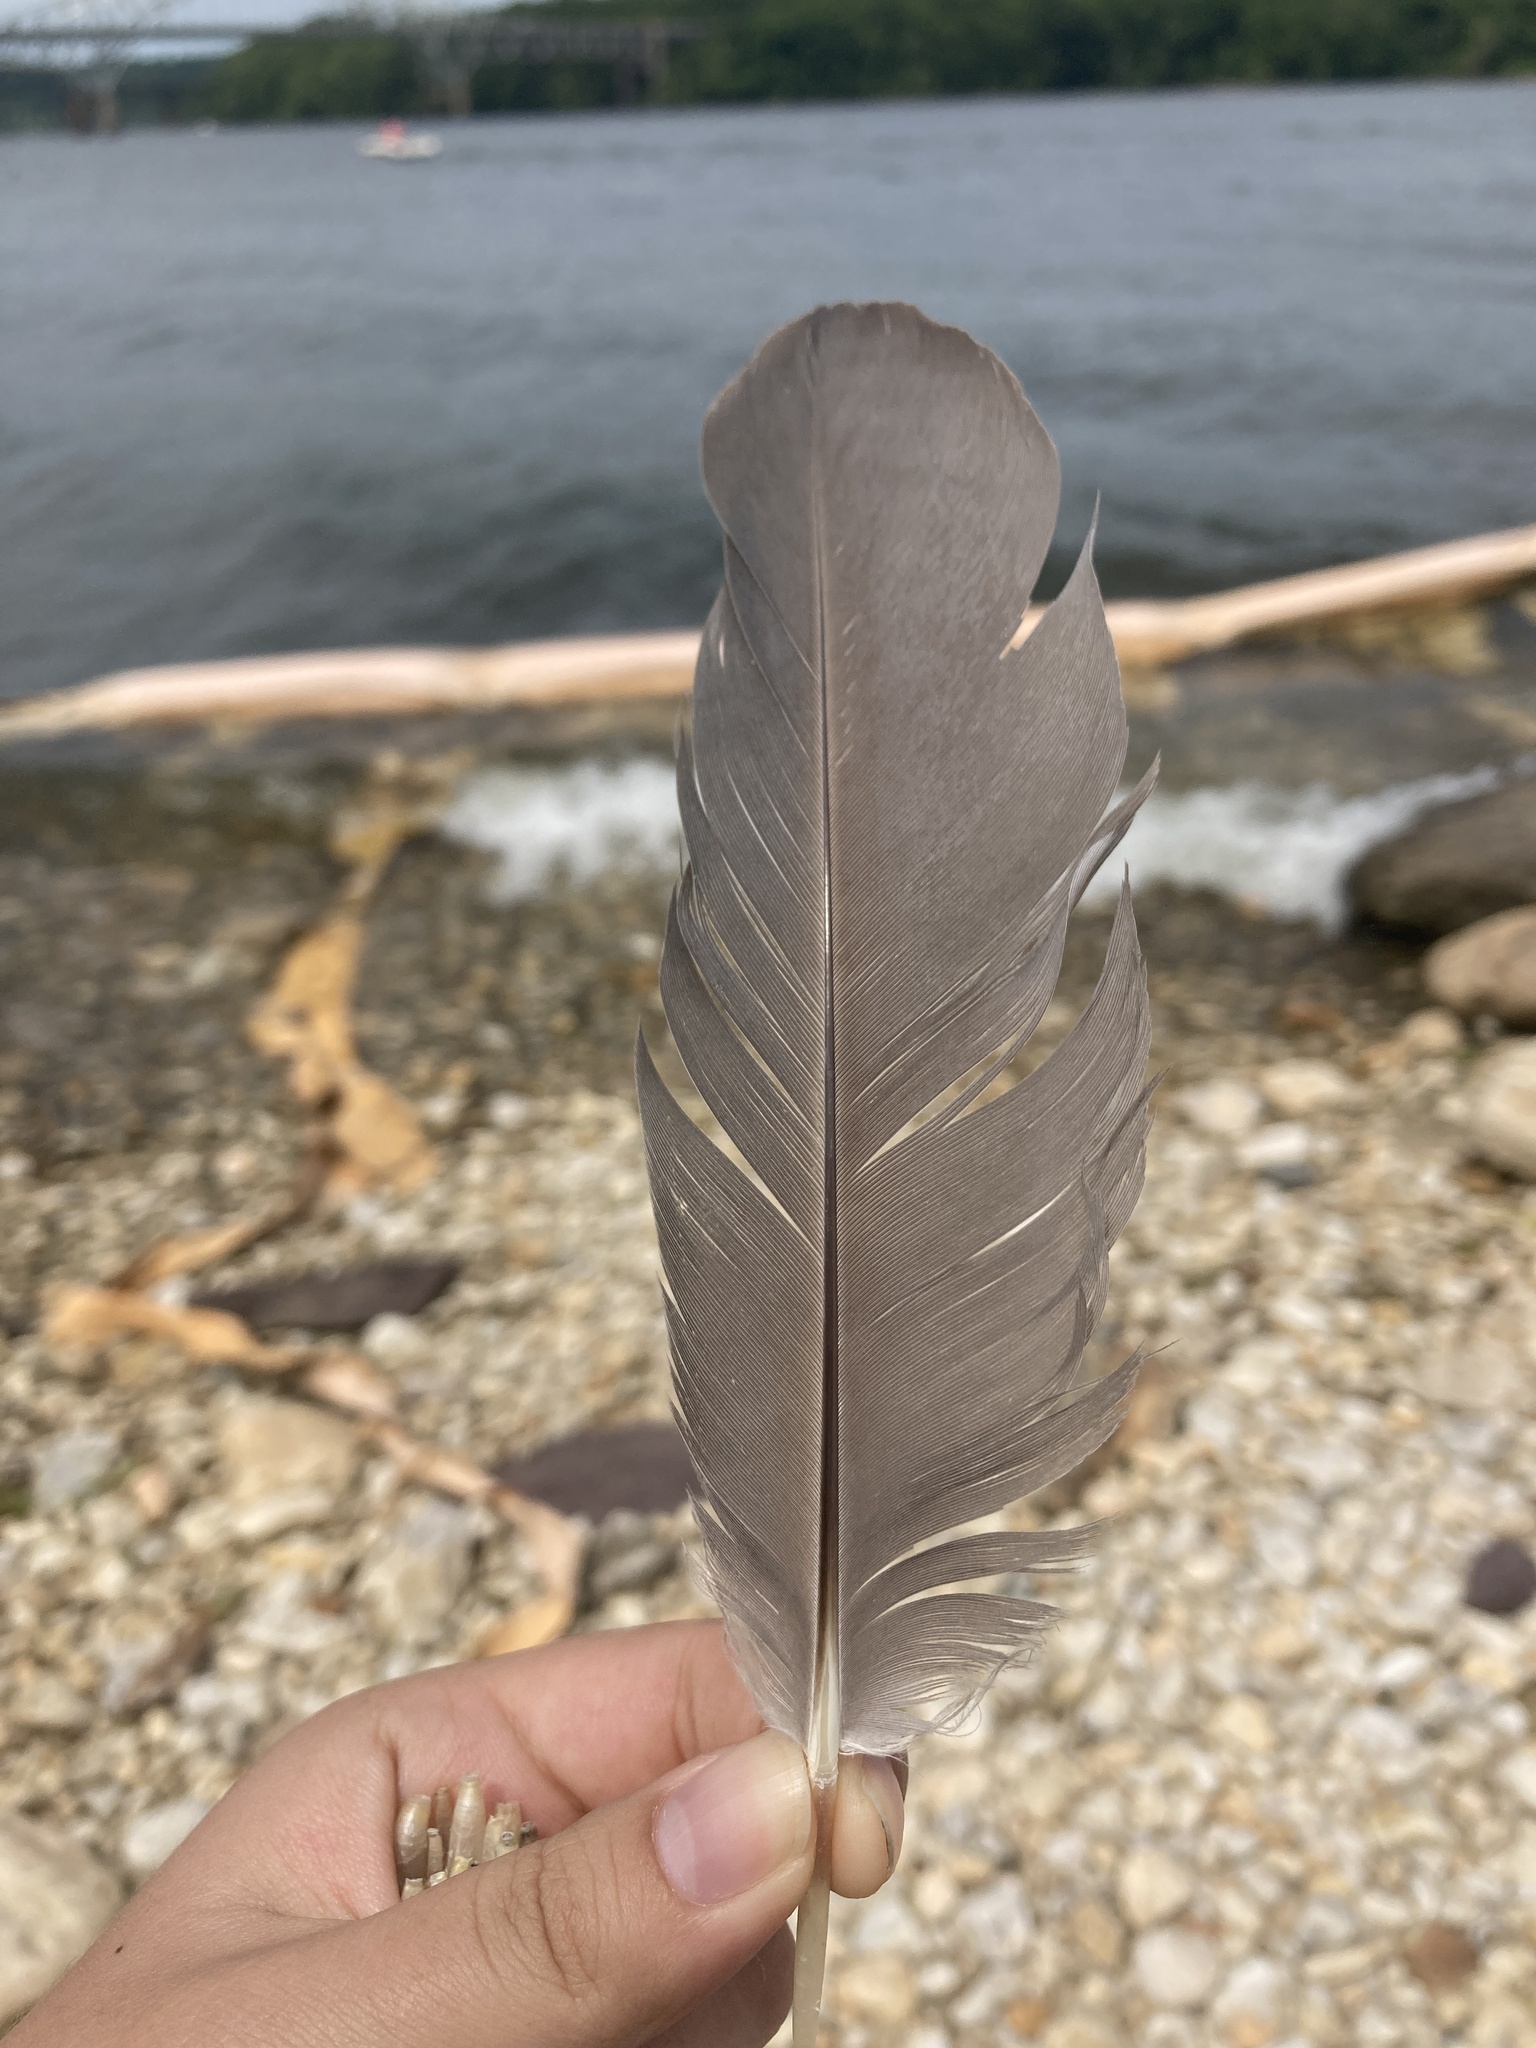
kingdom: Animalia
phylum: Chordata
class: Aves
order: Pelecaniformes
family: Ardeidae
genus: Ardea
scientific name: Ardea herodias
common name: Great blue heron
